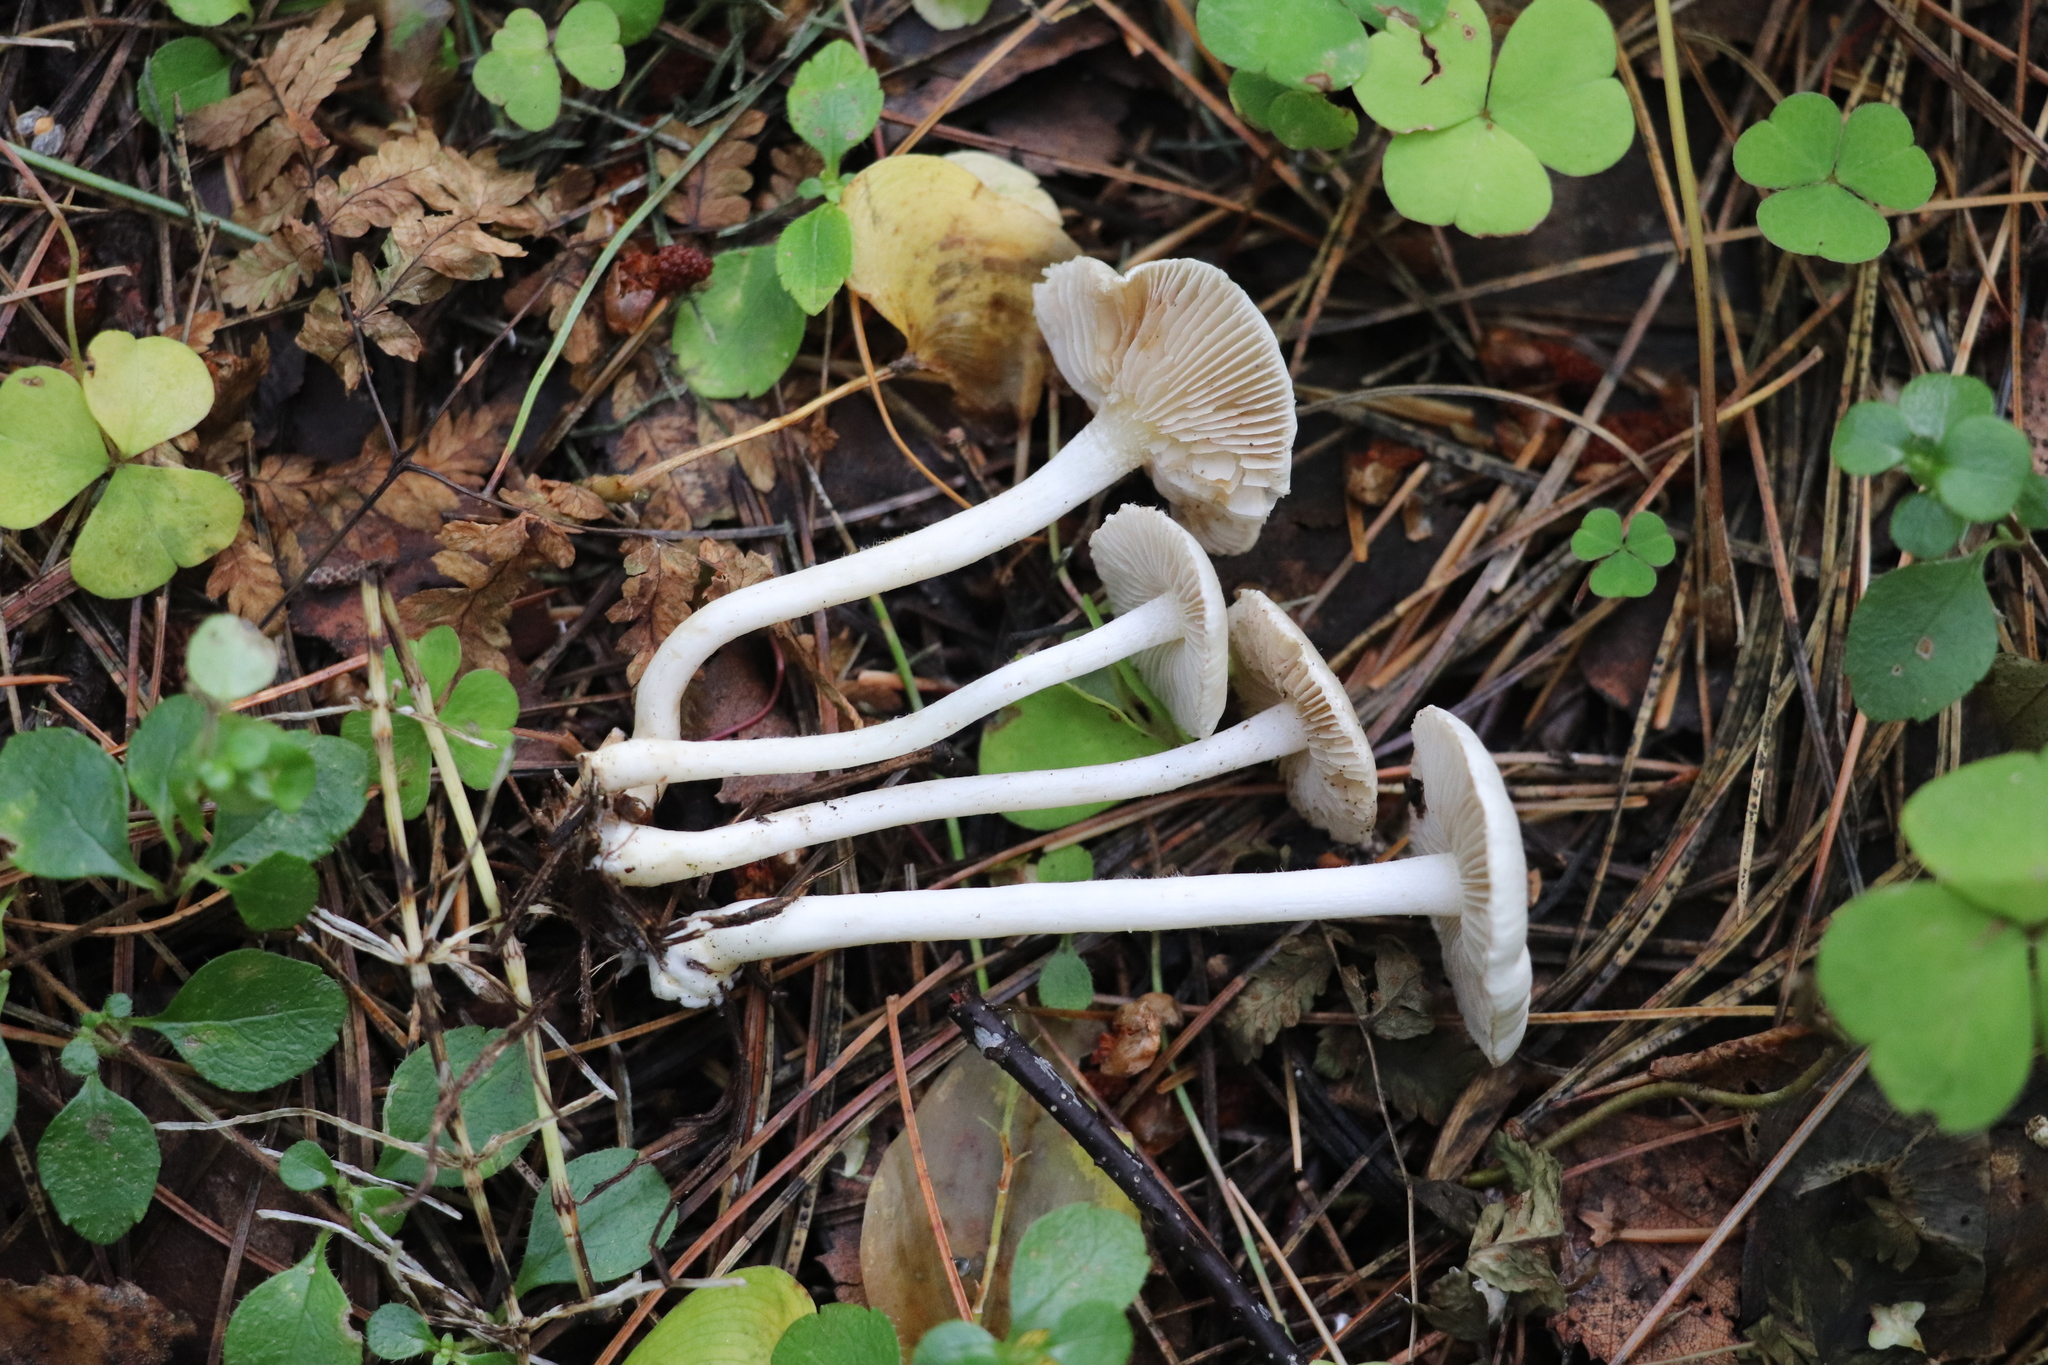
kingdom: Fungi
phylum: Basidiomycota
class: Agaricomycetes
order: Agaricales
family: Inocybaceae
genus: Inocybe
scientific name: Inocybe geophylla
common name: White fibrecap
